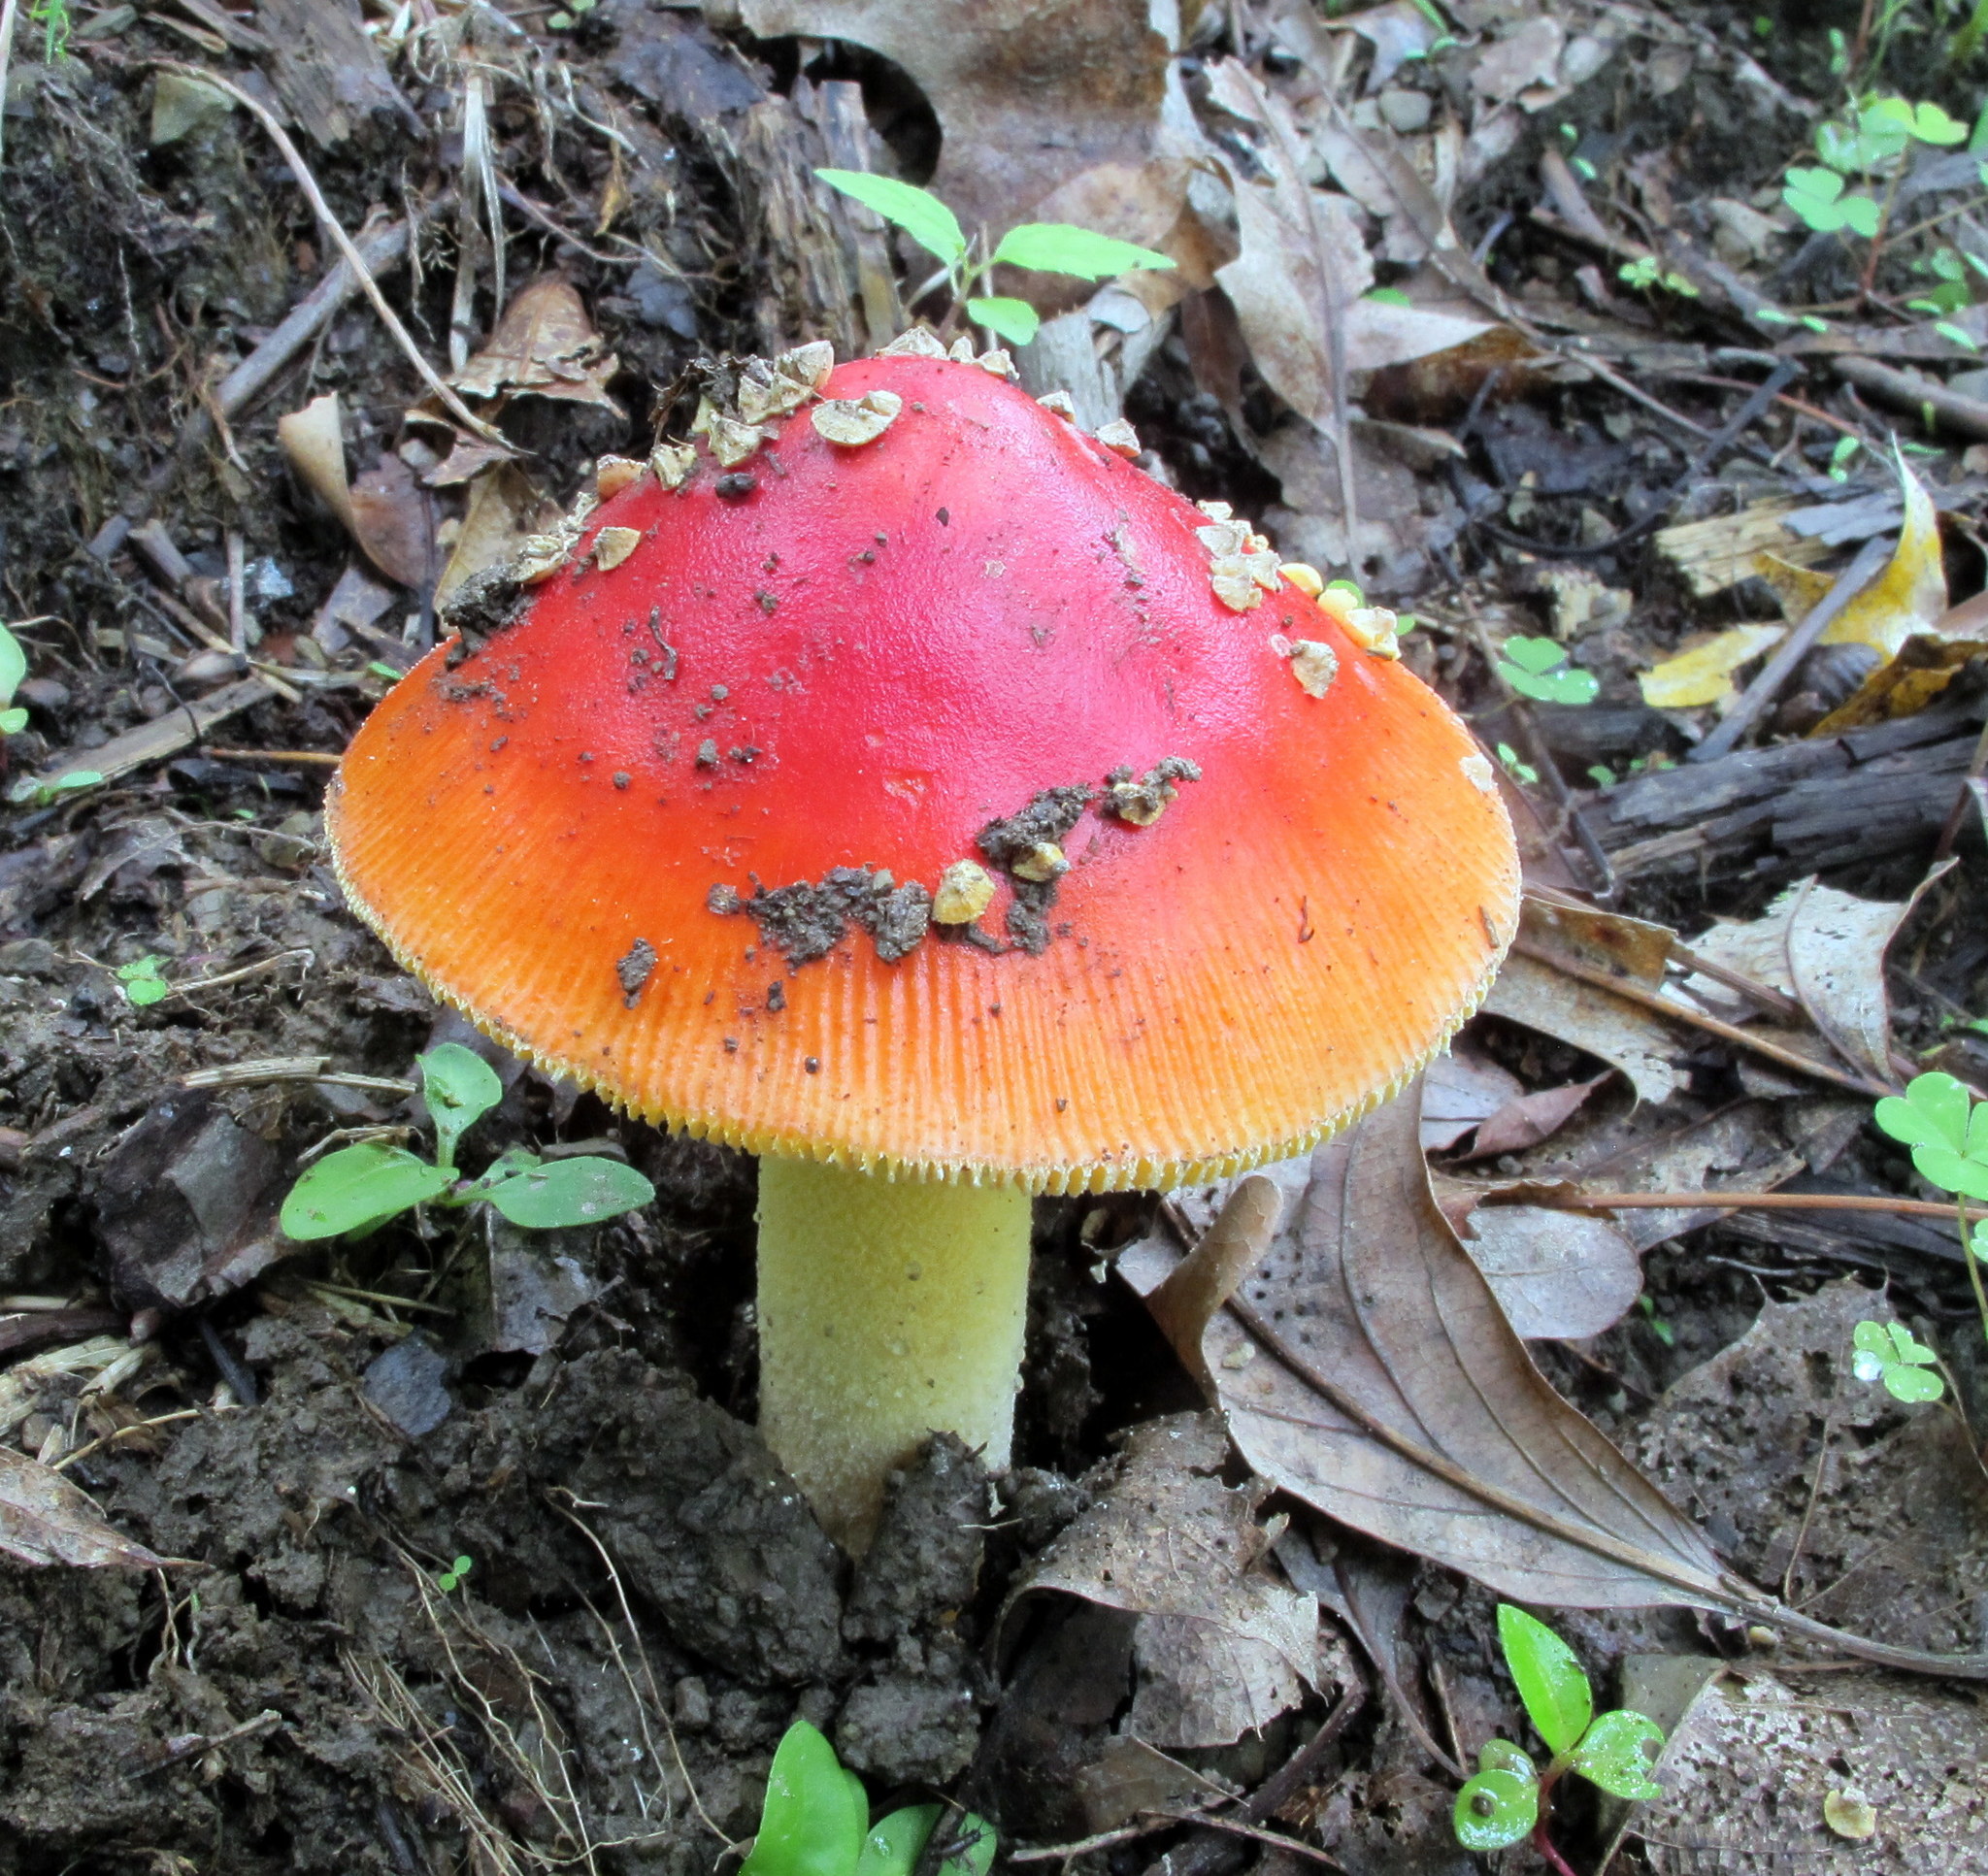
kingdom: Fungi
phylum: Basidiomycota
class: Agaricomycetes
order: Agaricales
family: Amanitaceae
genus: Amanita
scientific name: Amanita parcivolvata
